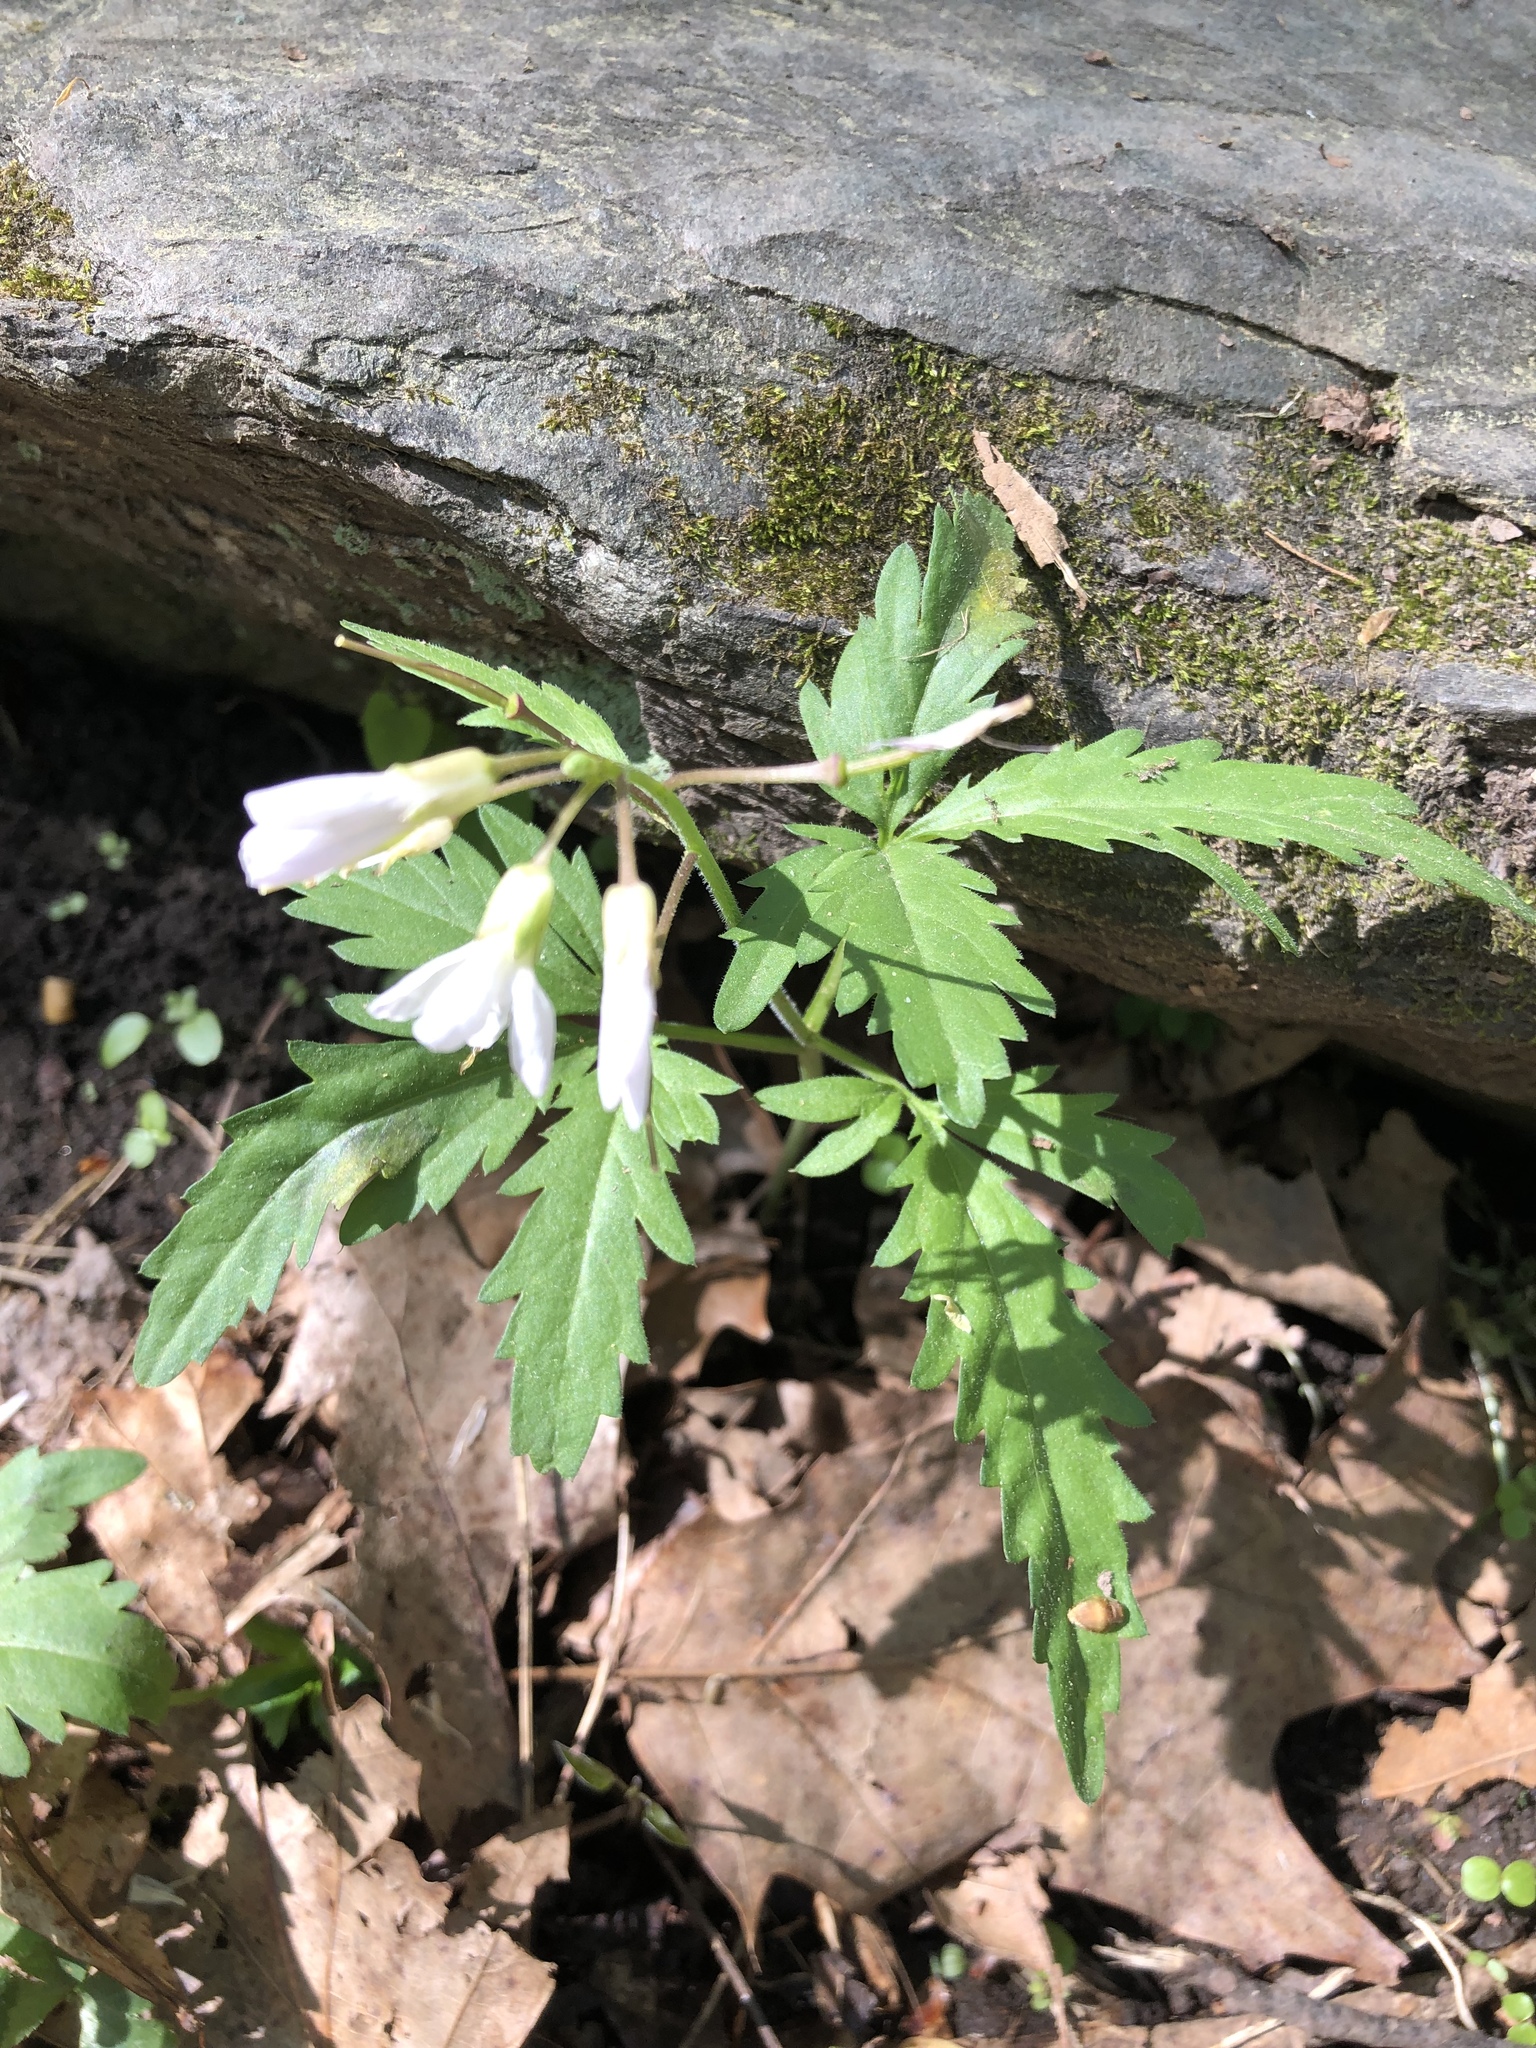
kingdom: Plantae
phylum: Tracheophyta
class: Magnoliopsida
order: Brassicales
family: Brassicaceae
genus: Cardamine
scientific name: Cardamine concatenata
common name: Cut-leaf toothcup
